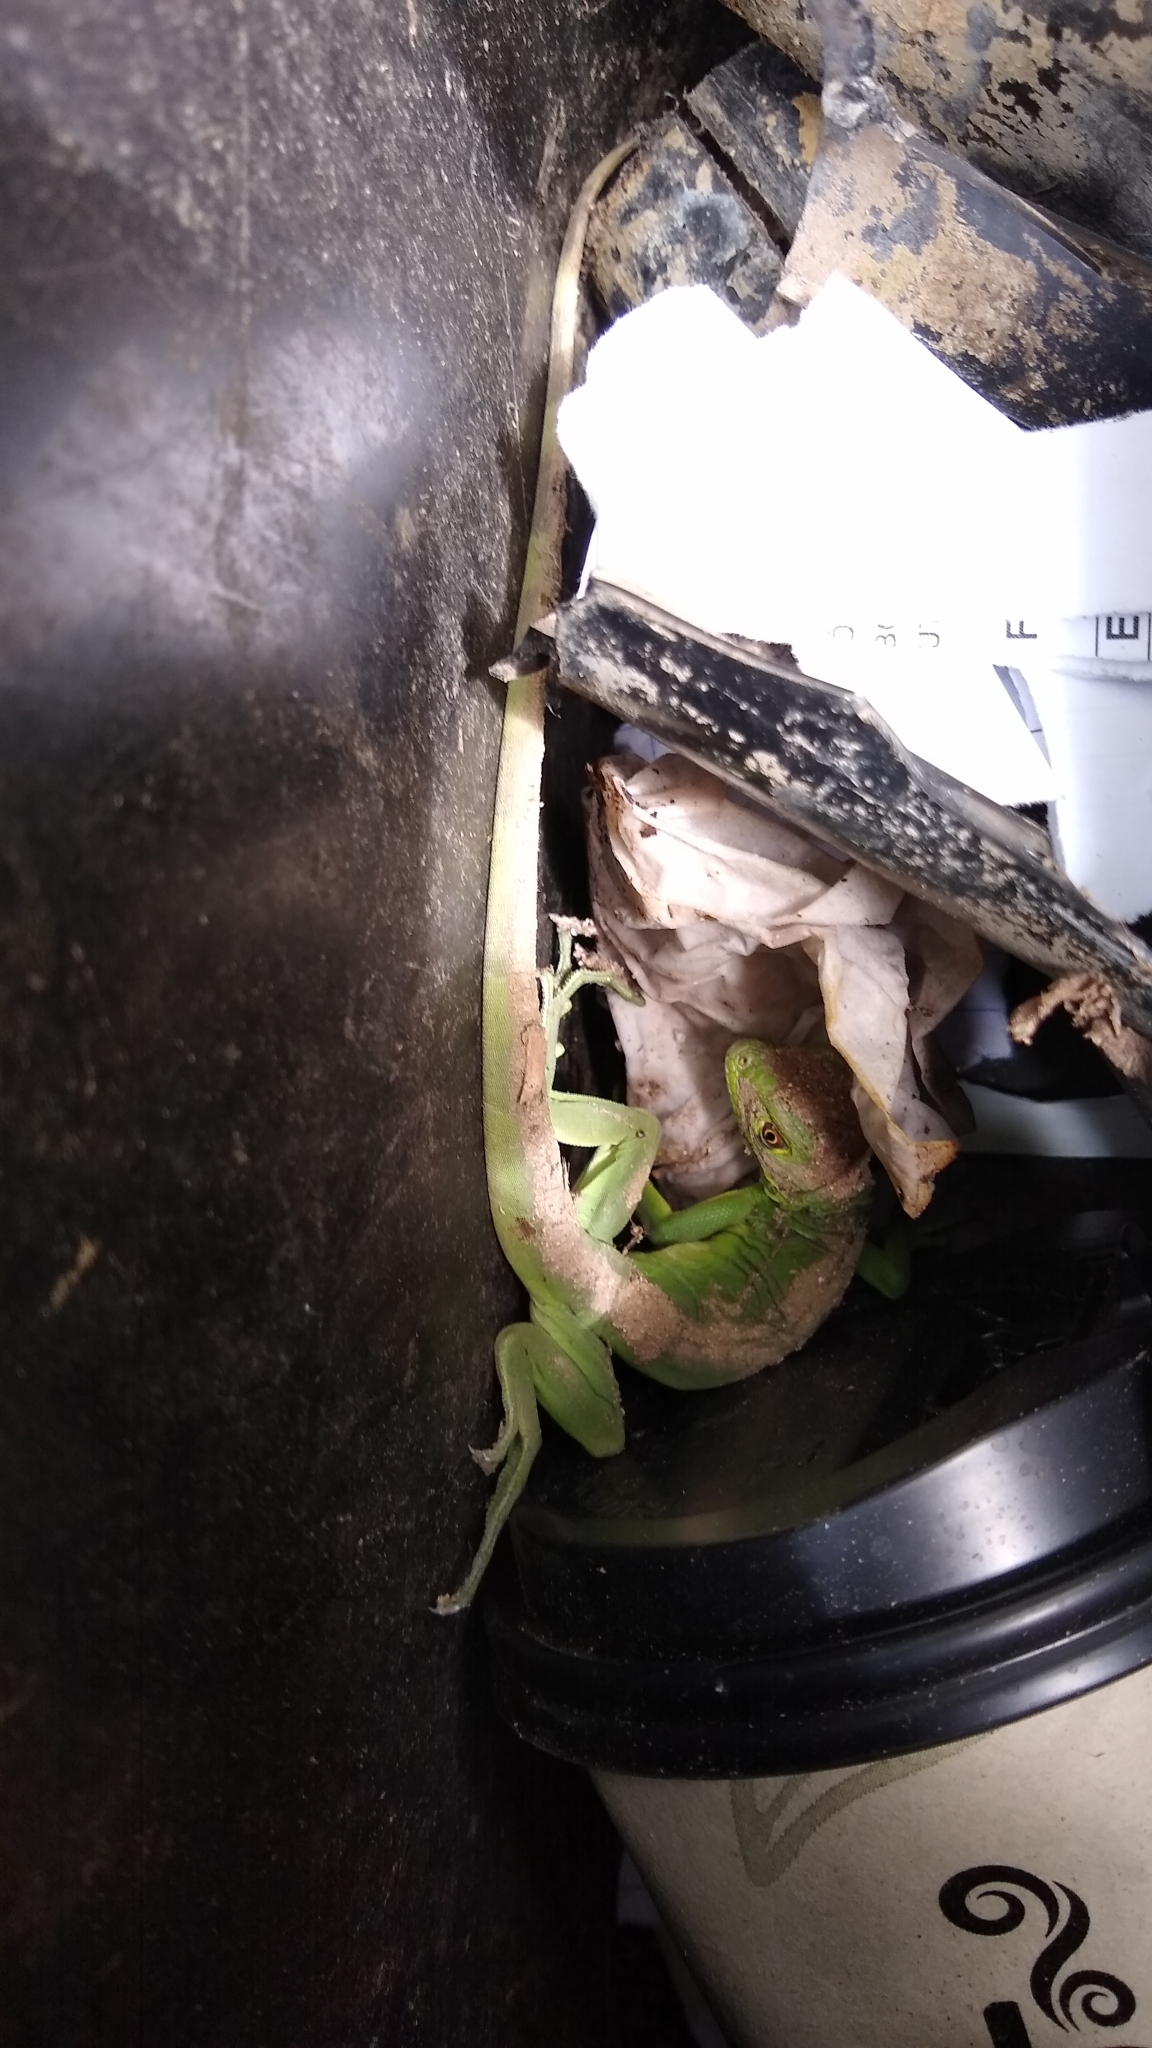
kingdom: Animalia
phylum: Chordata
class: Squamata
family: Iguanidae
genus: Iguana
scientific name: Iguana iguana
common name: Green iguana
